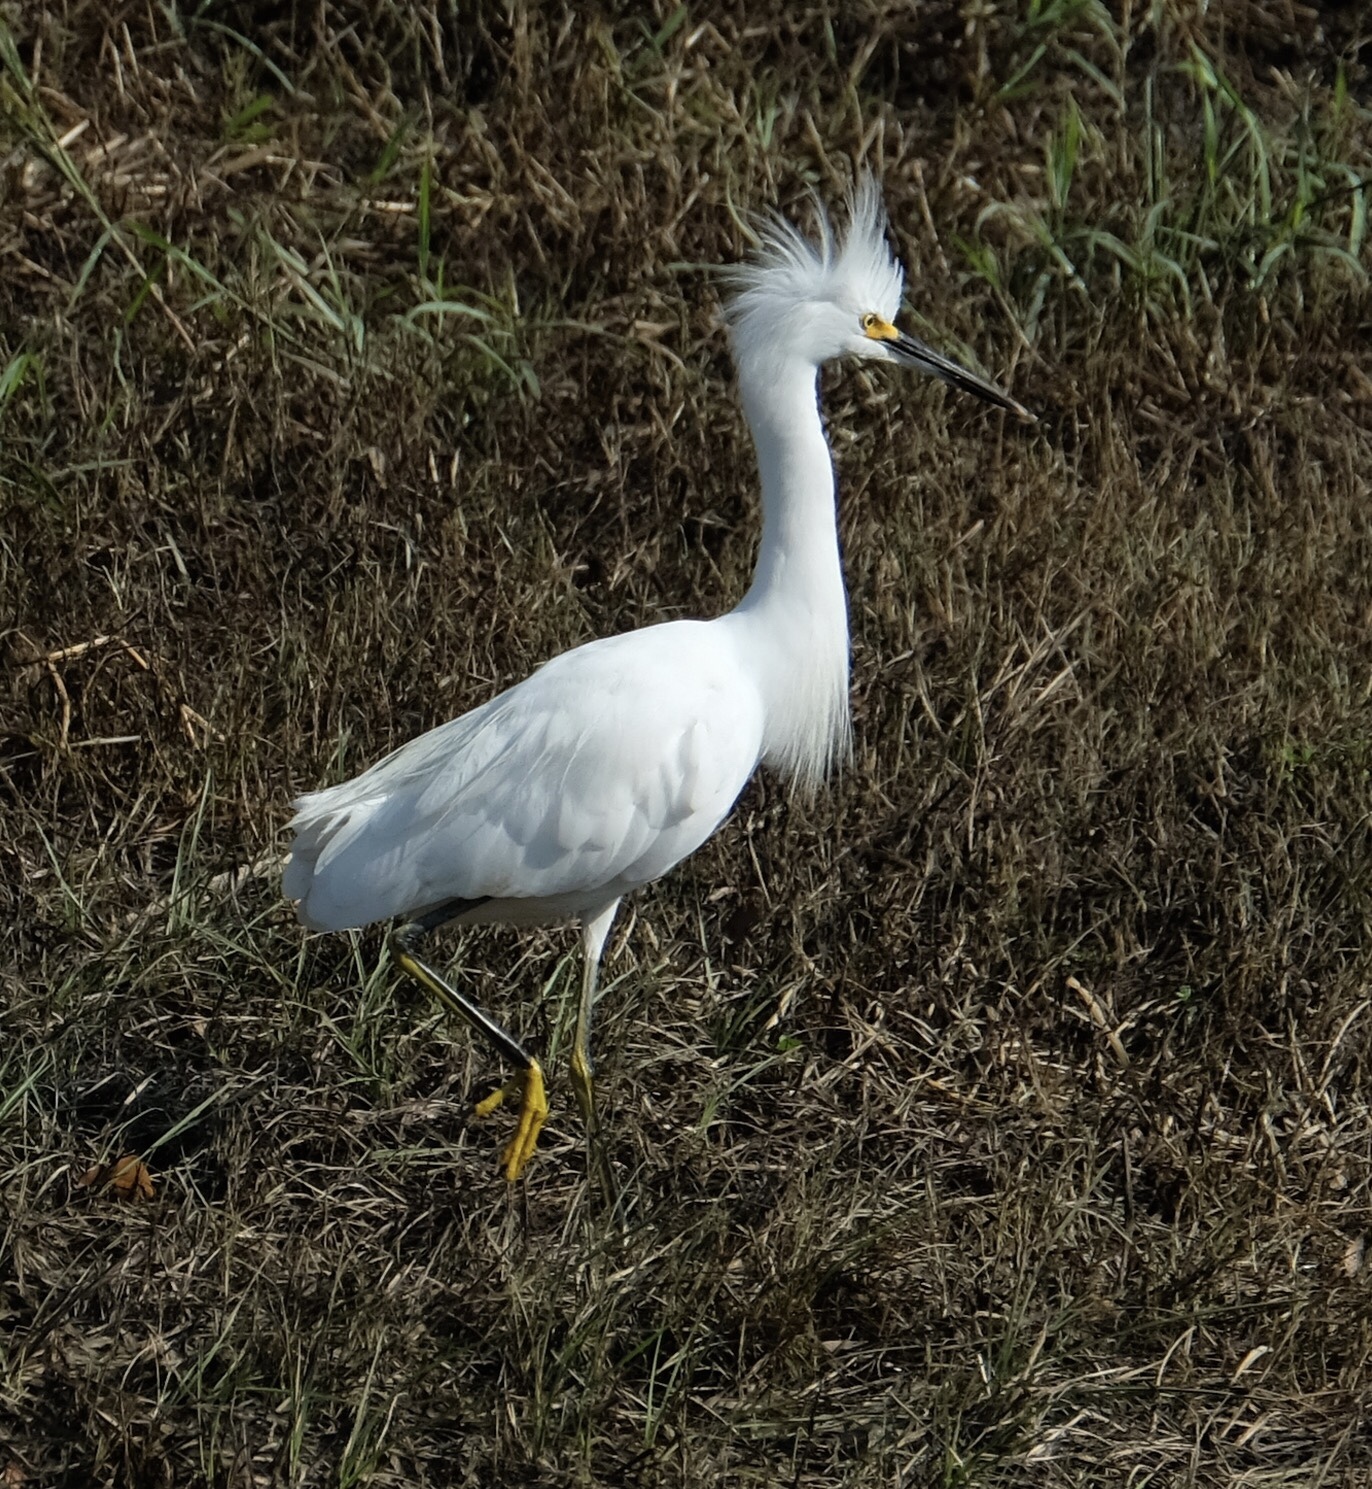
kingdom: Animalia
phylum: Chordata
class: Aves
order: Pelecaniformes
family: Ardeidae
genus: Egretta
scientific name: Egretta thula
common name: Snowy egret
